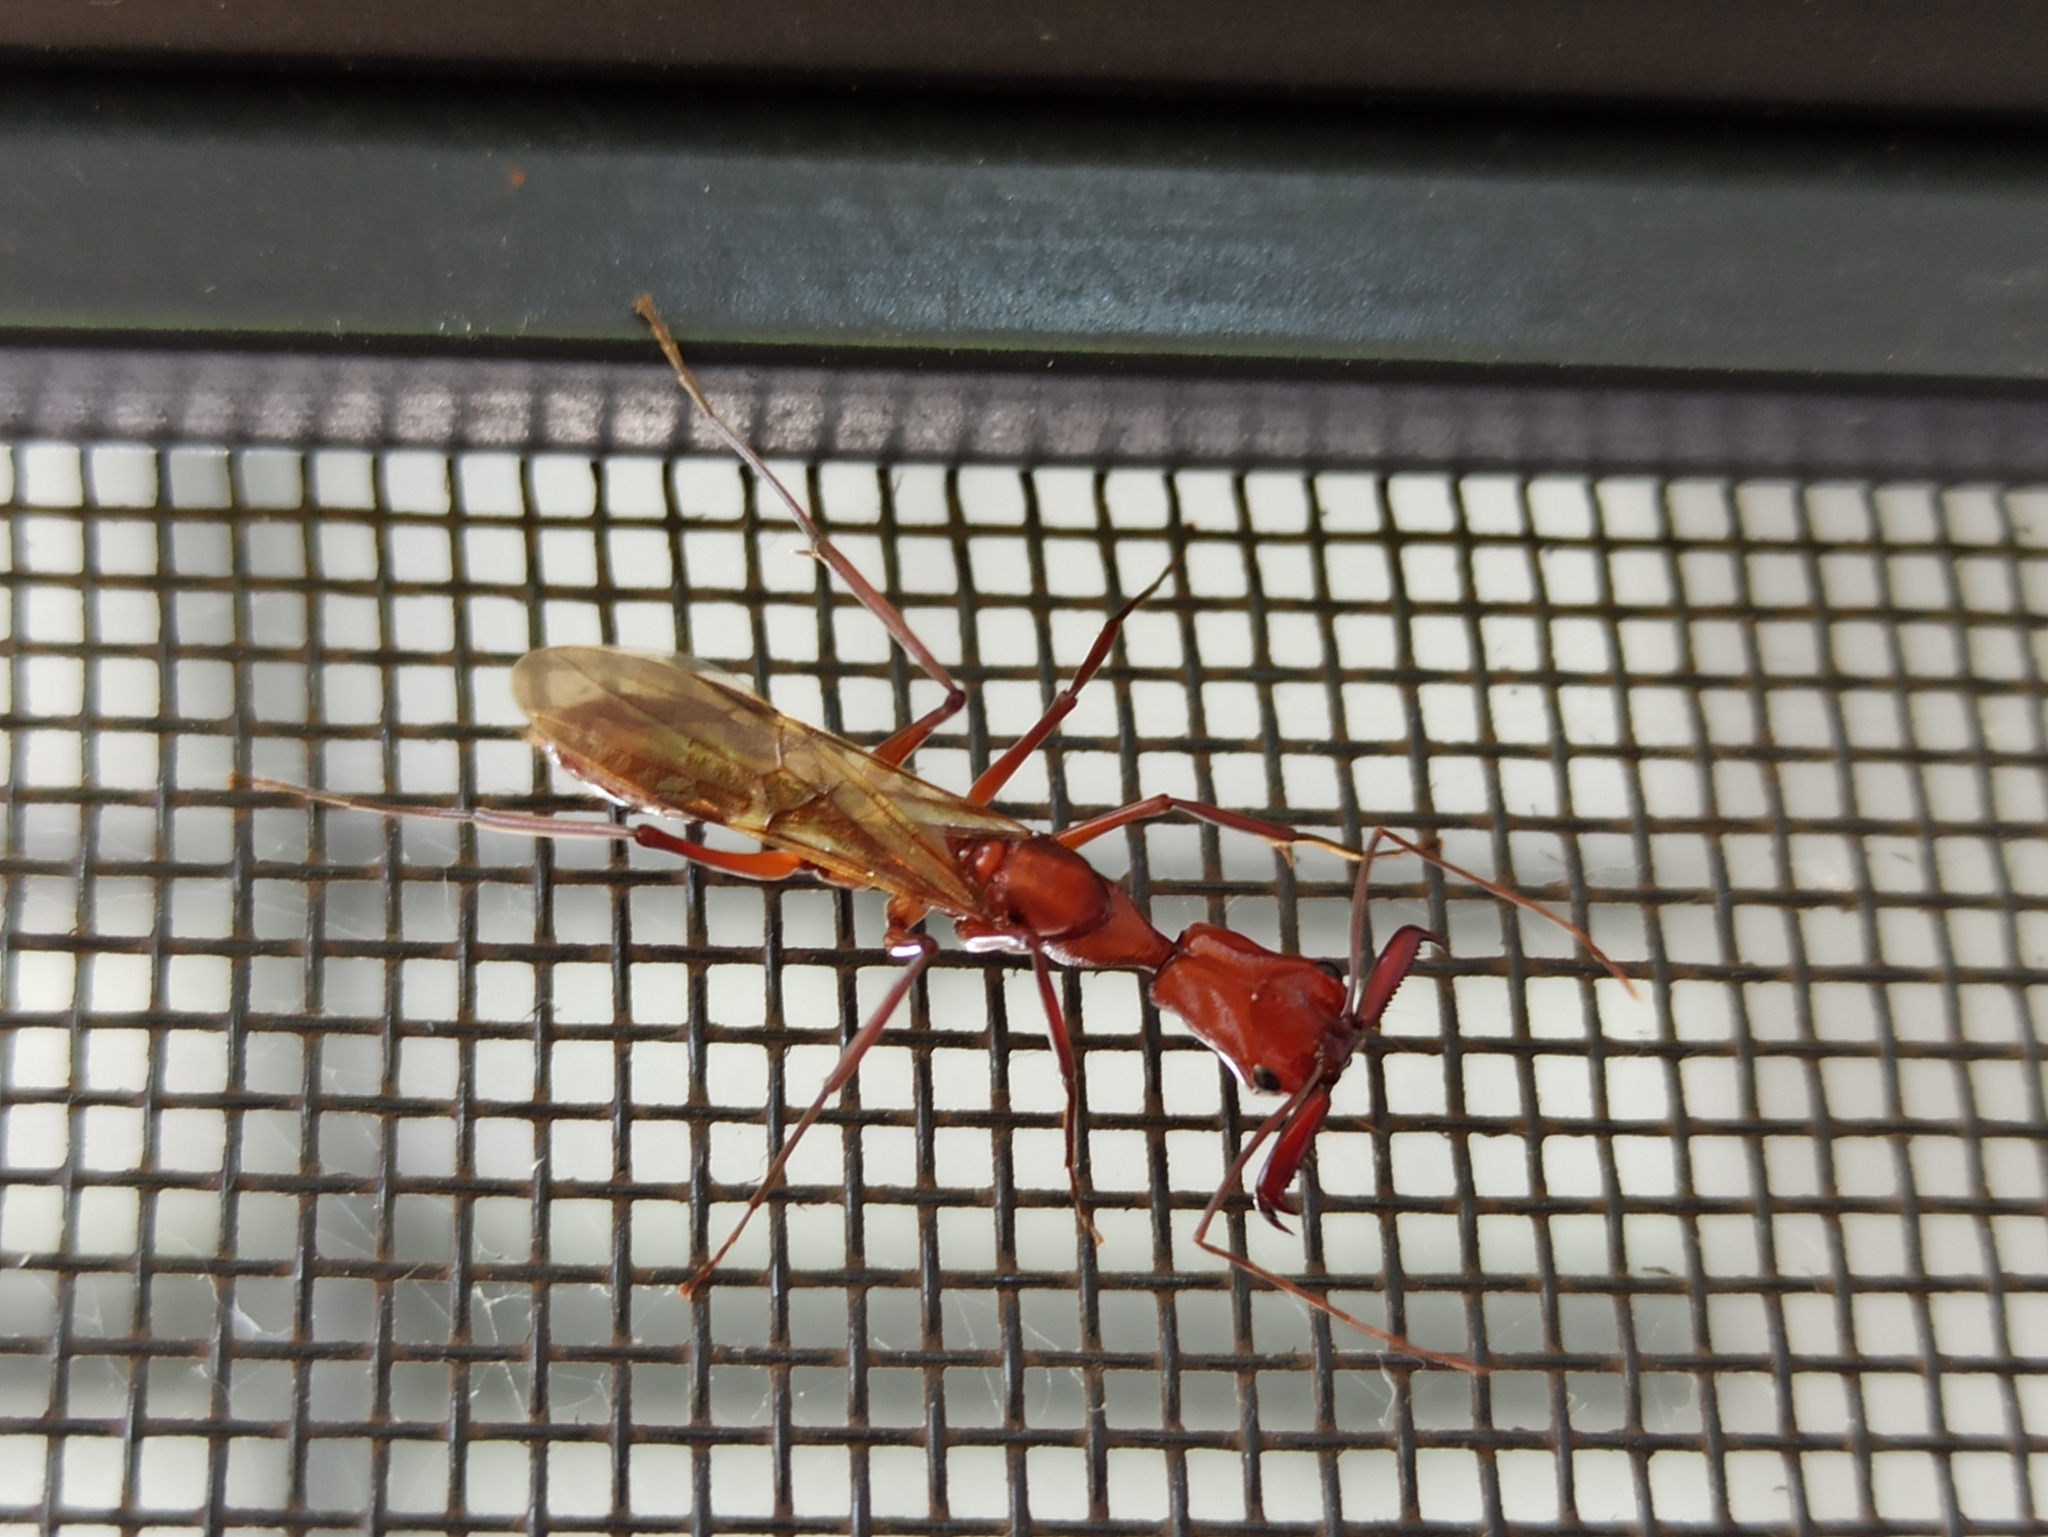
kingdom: Animalia
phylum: Arthropoda
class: Insecta
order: Hymenoptera
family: Formicidae
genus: Odontomachus
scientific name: Odontomachus davidsoni
